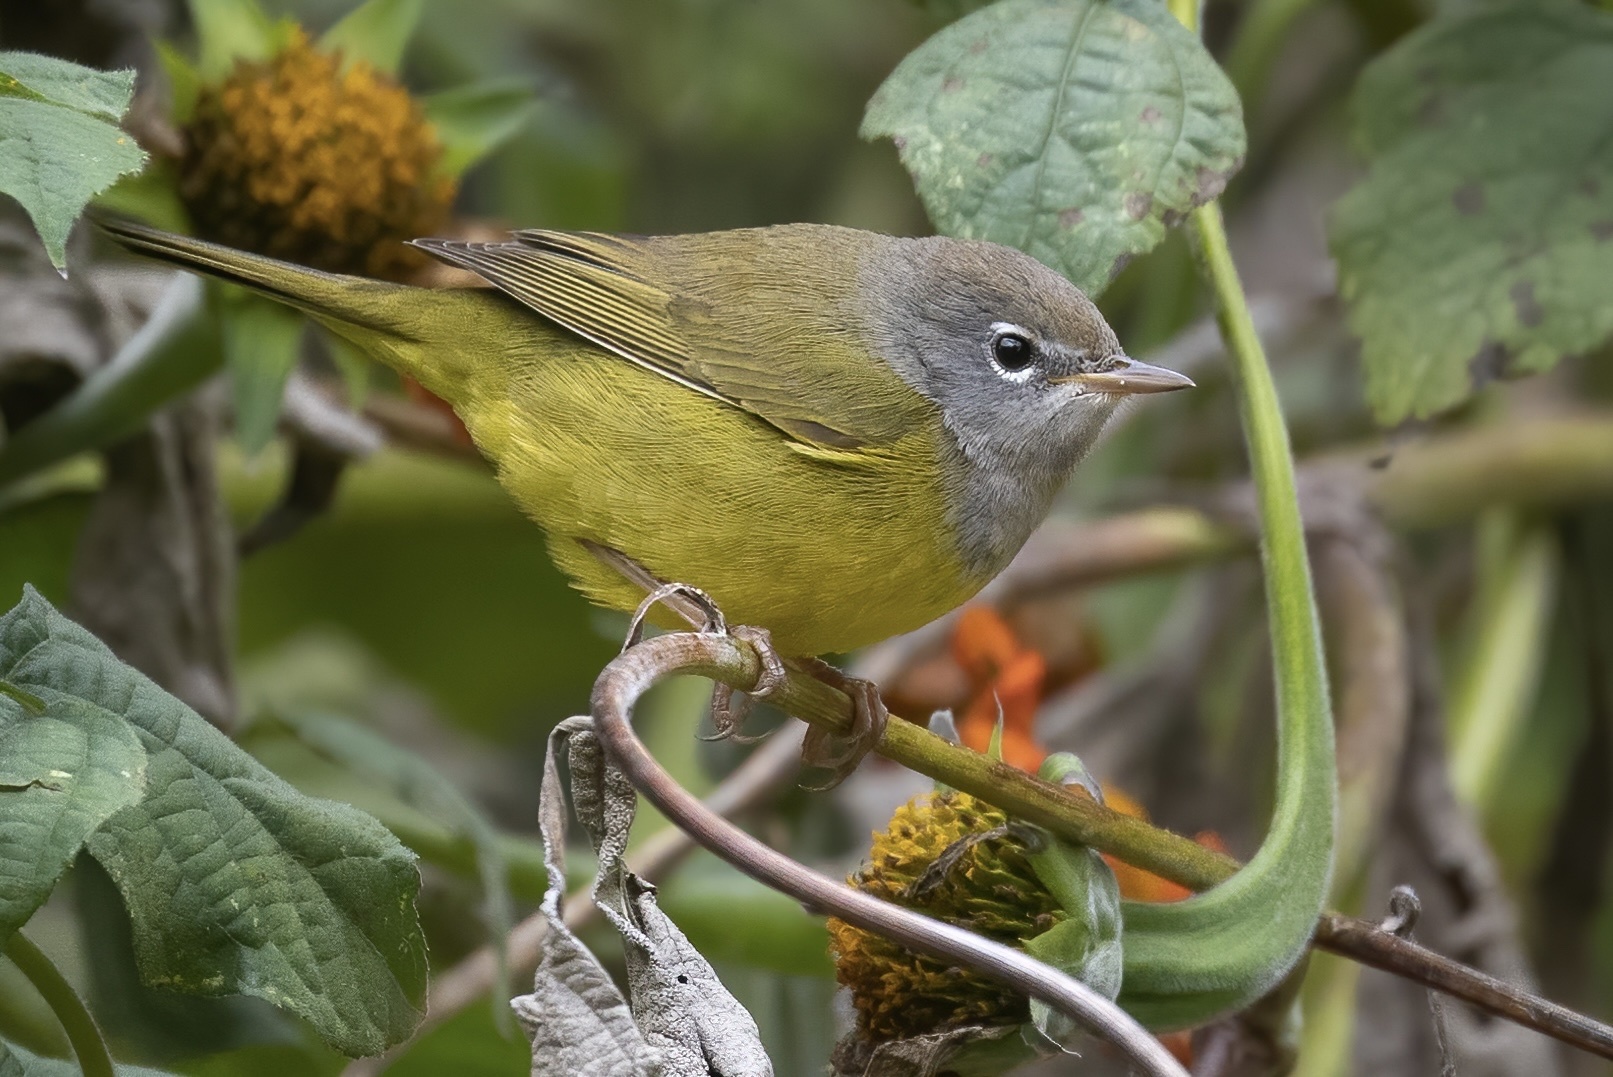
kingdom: Animalia
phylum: Chordata
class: Aves
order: Passeriformes
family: Parulidae
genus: Geothlypis
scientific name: Geothlypis tolmiei
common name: Macgillivray's warbler
